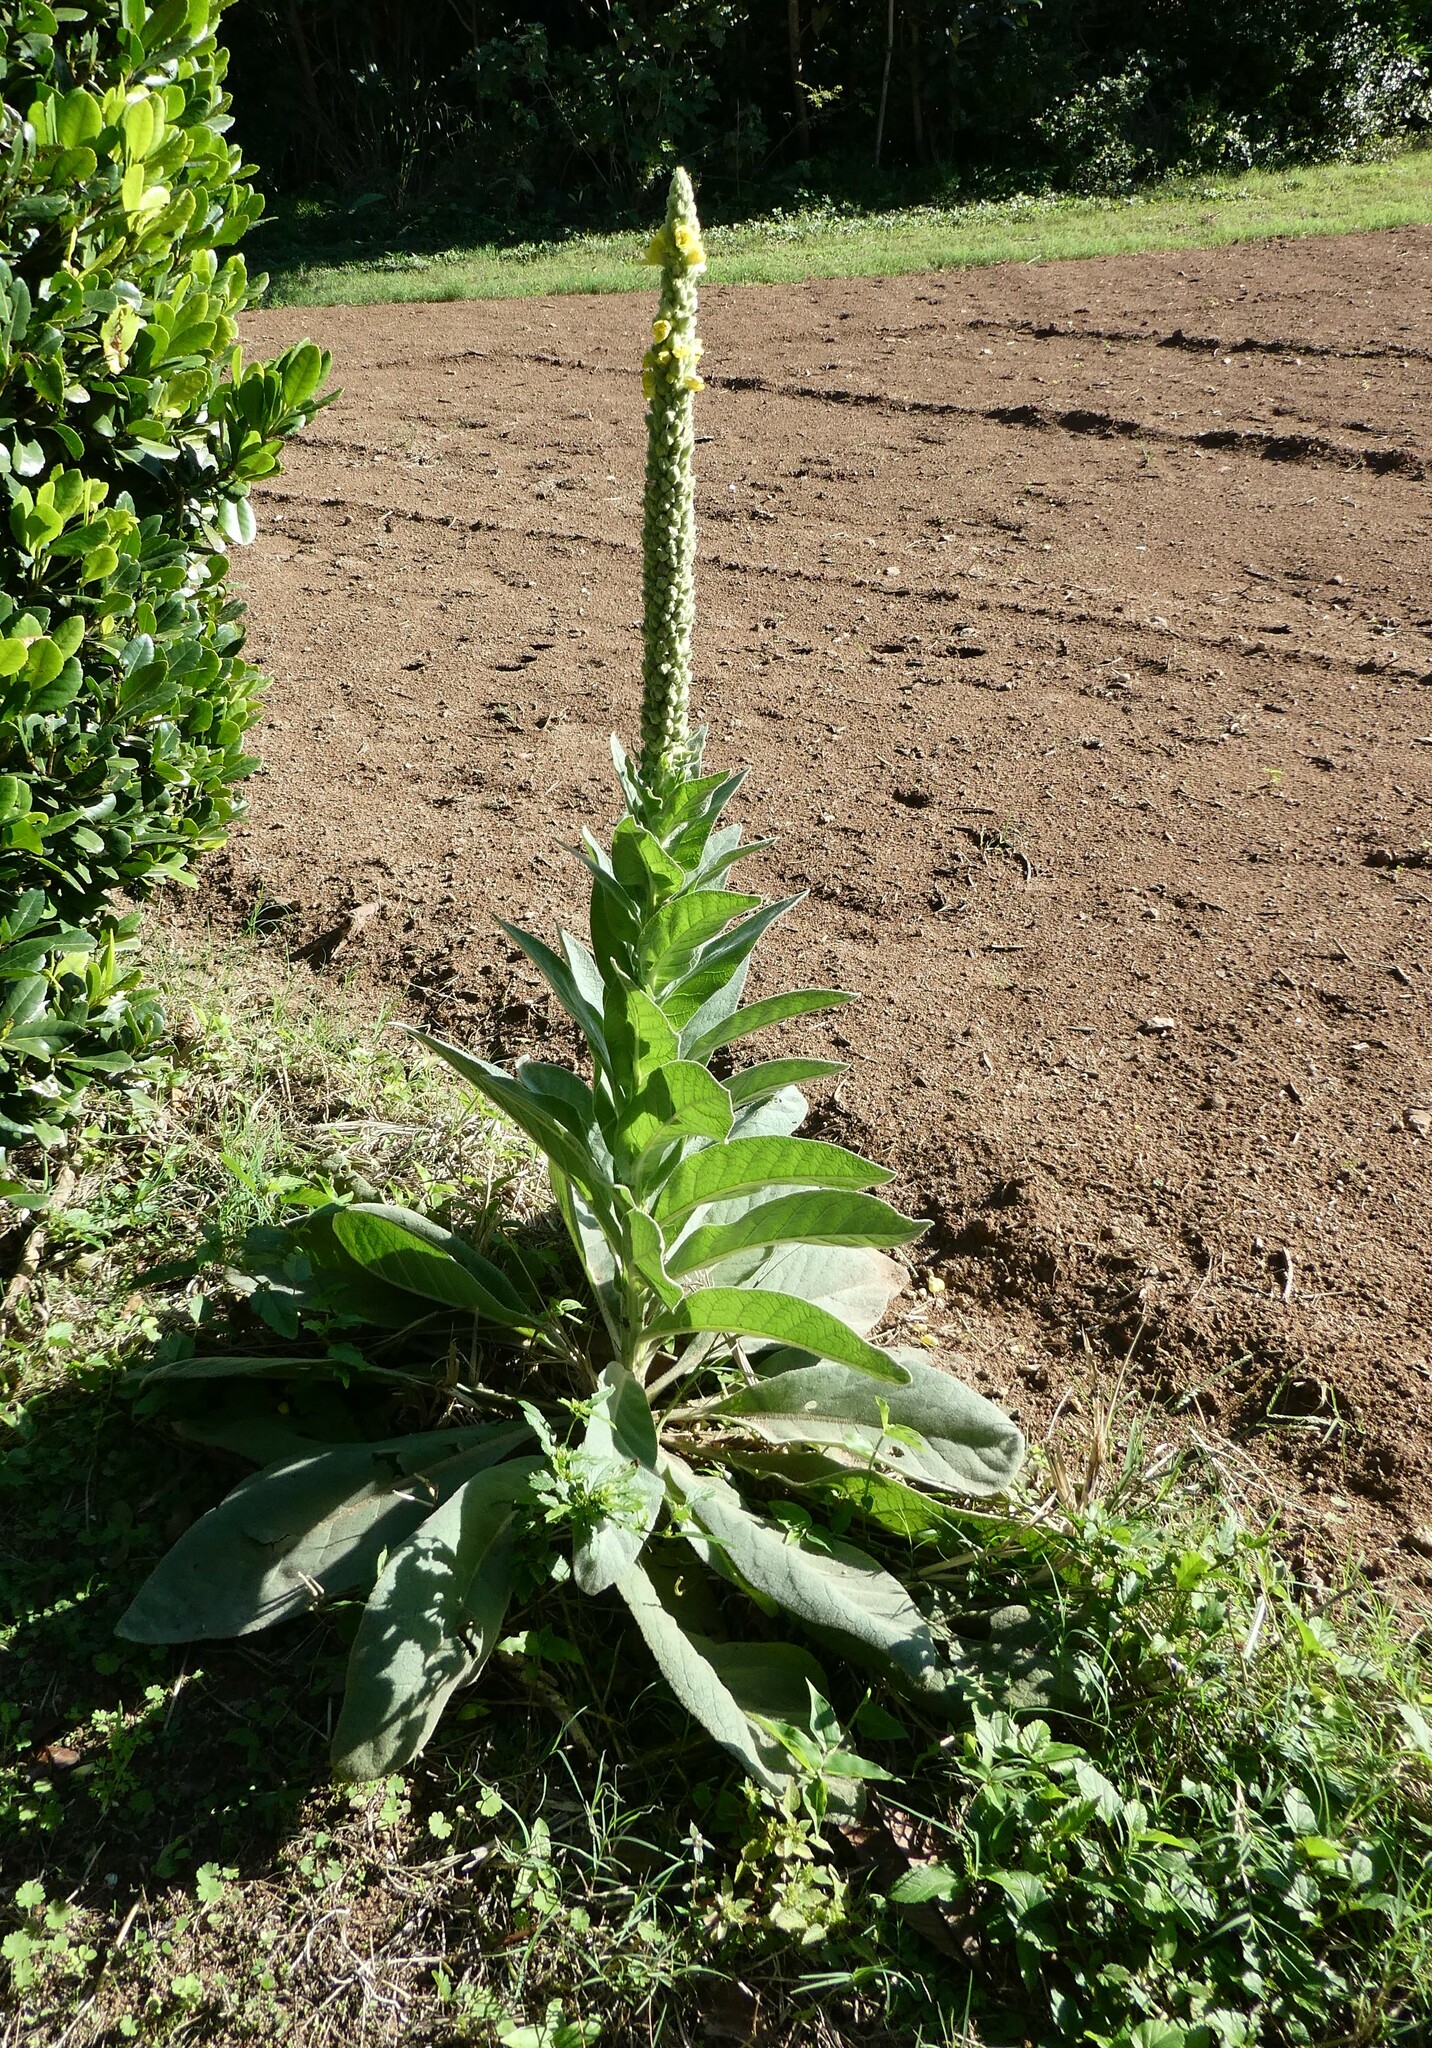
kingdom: Plantae
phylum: Tracheophyta
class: Magnoliopsida
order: Lamiales
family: Scrophulariaceae
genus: Verbascum
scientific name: Verbascum thapsus
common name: Common mullein
